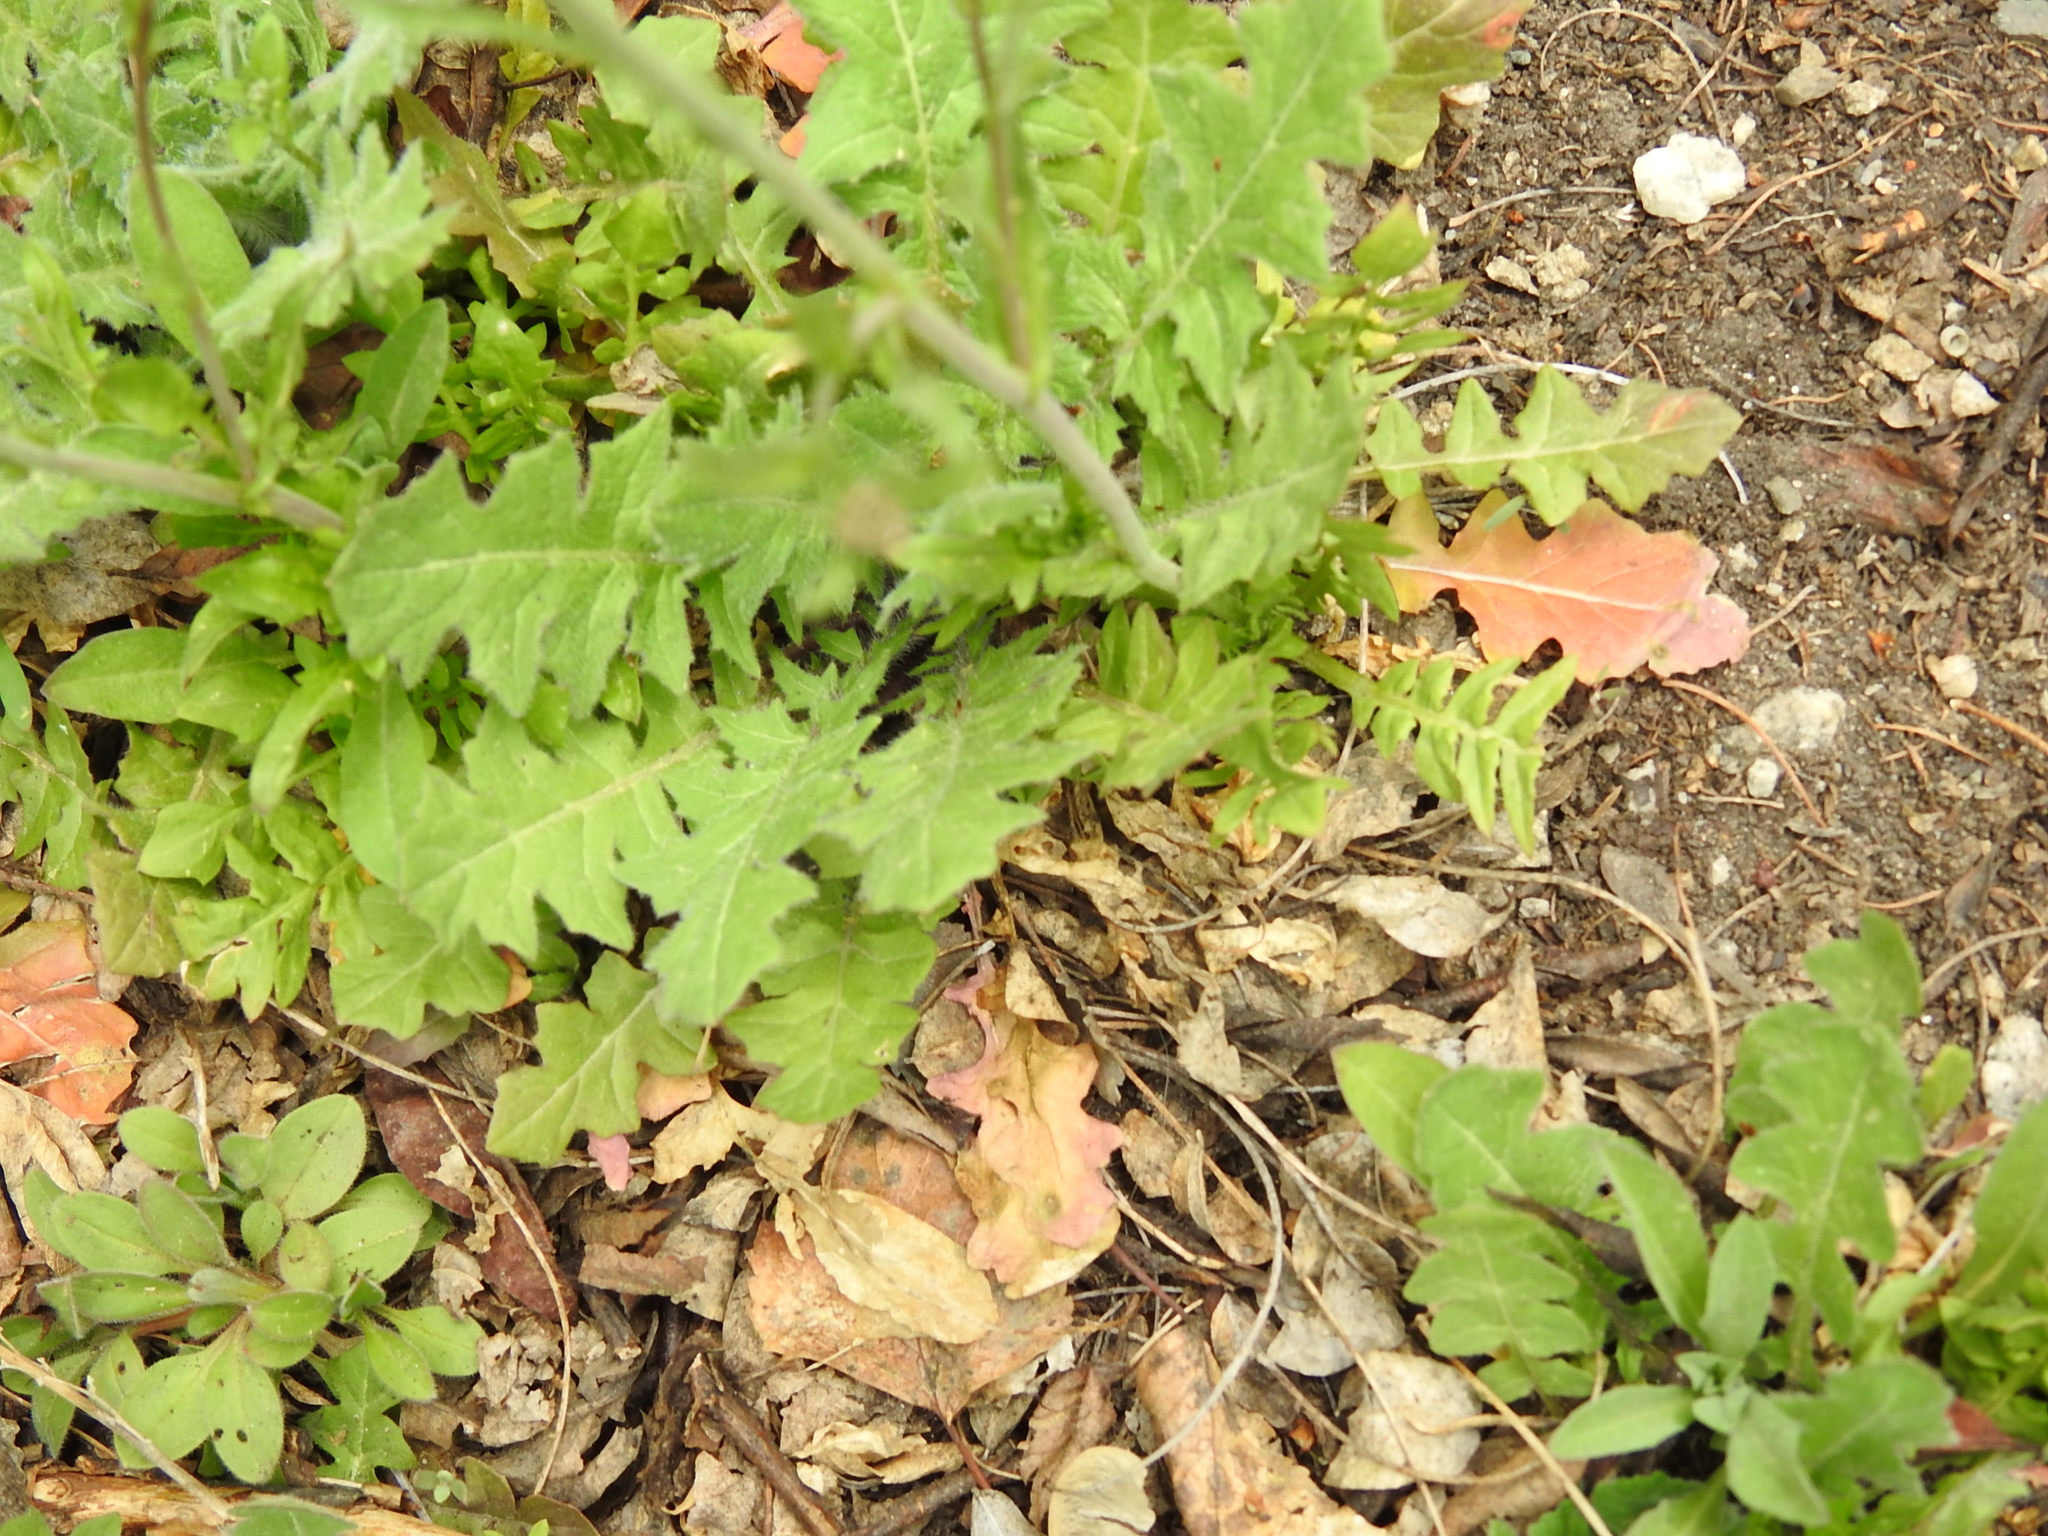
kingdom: Plantae
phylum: Tracheophyta
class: Magnoliopsida
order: Brassicales
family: Brassicaceae
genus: Capsella
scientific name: Capsella bursa-pastoris
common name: Shepherd's purse
